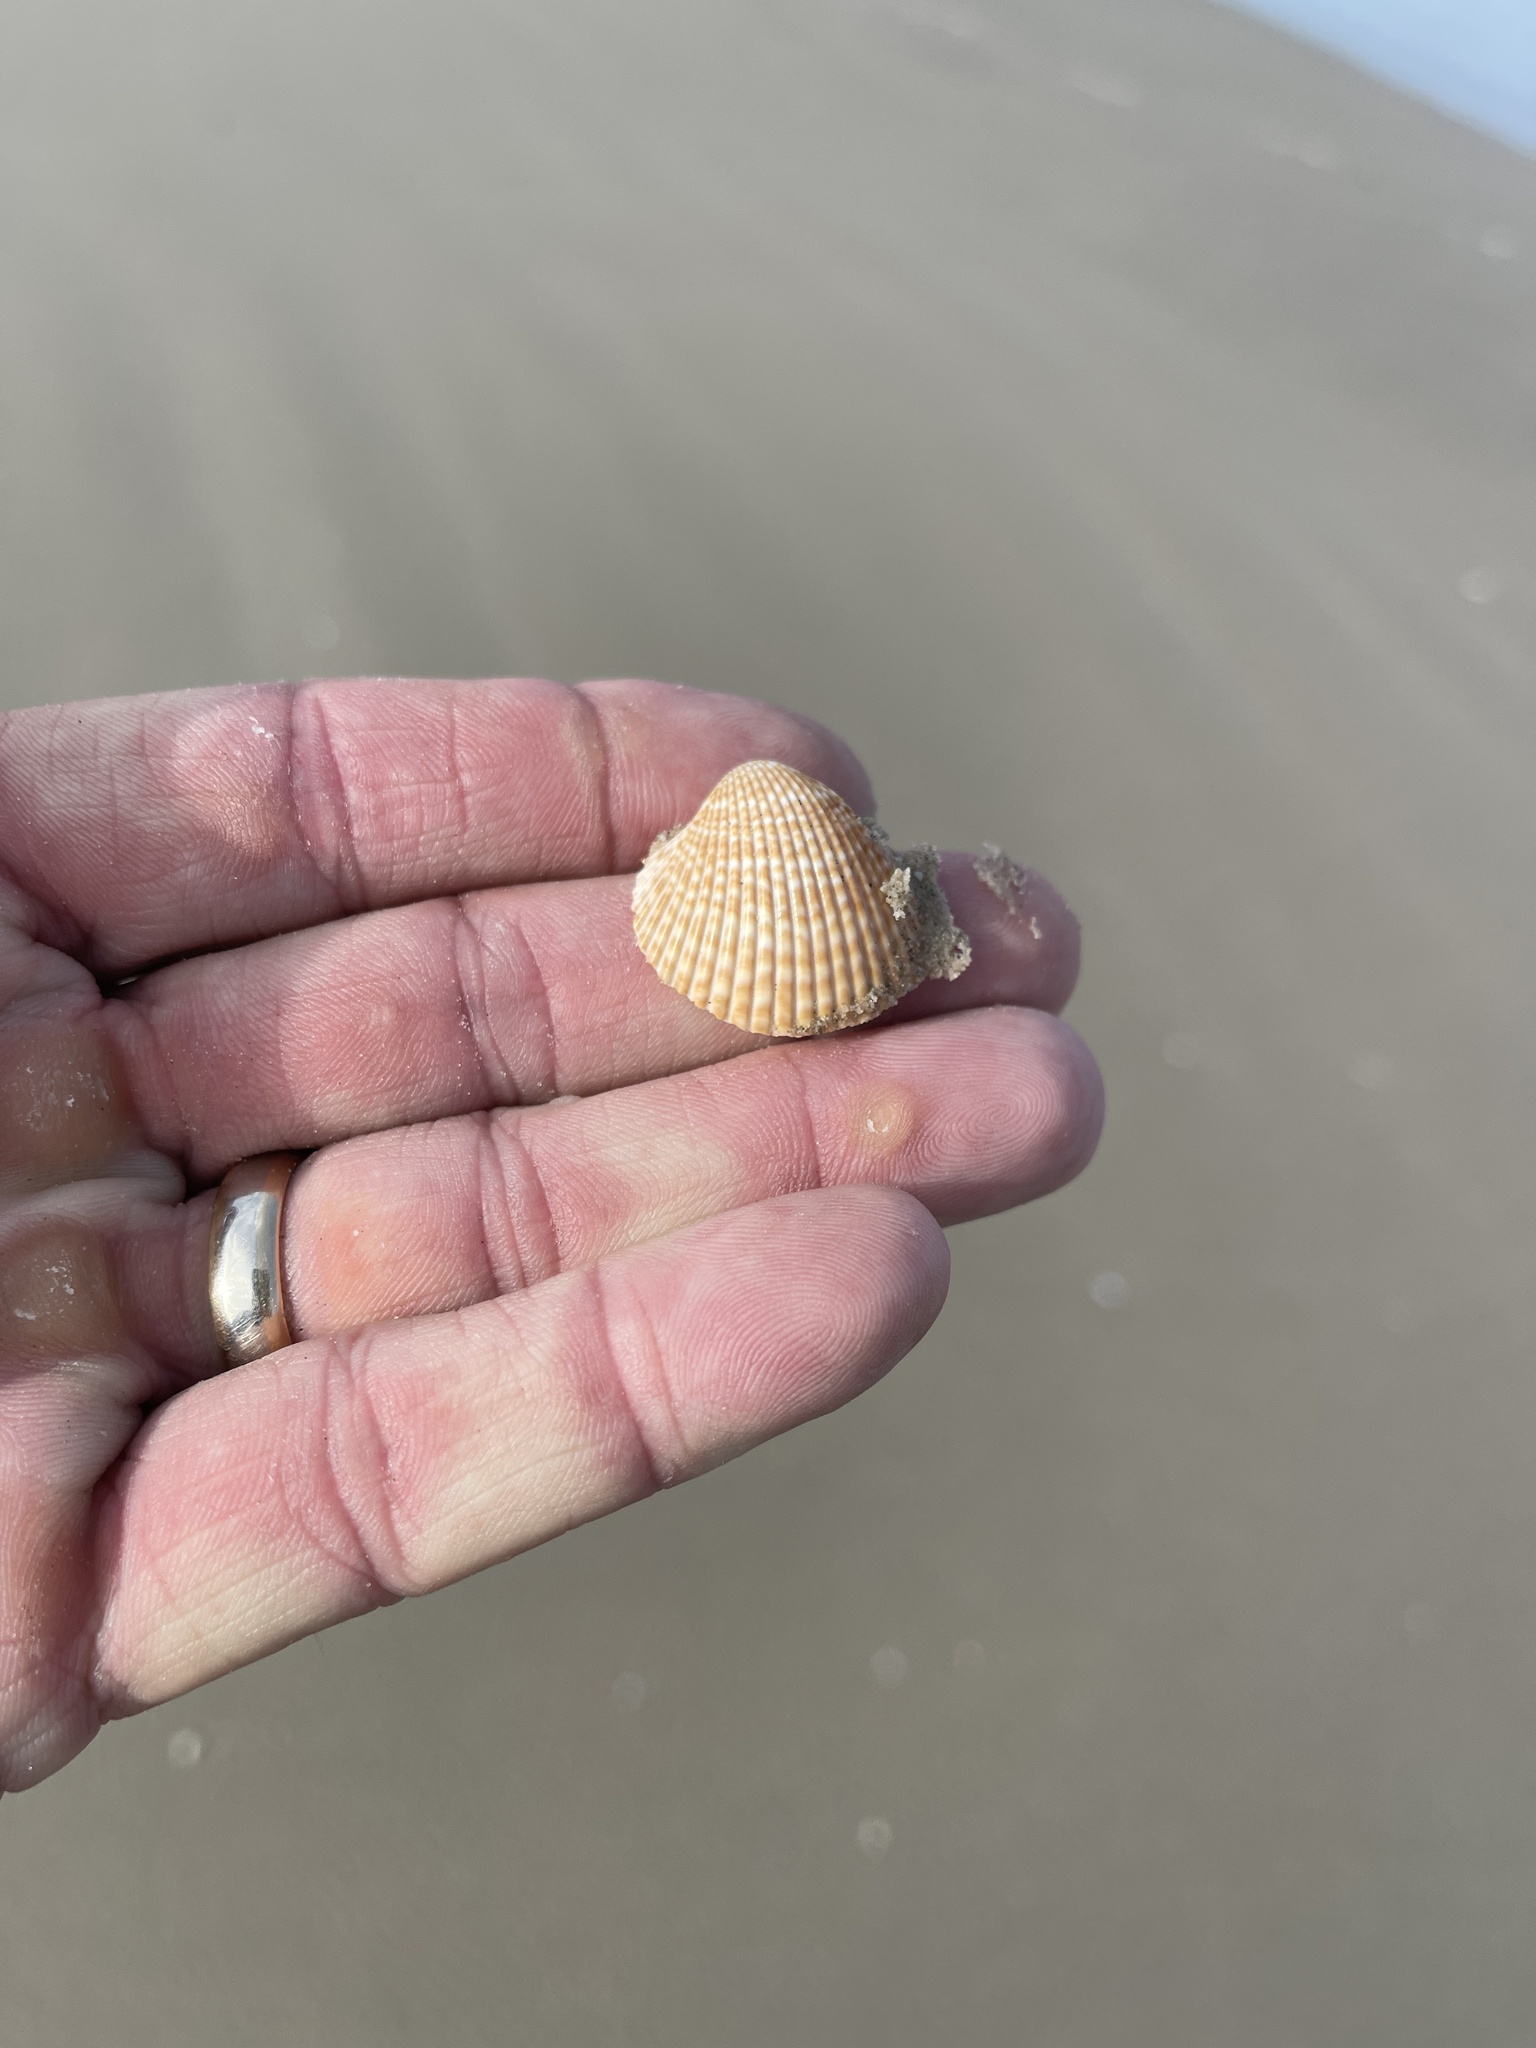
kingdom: Animalia
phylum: Mollusca
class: Bivalvia
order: Cardiida
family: Cardiidae
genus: Dinocardium
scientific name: Dinocardium robustum
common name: Atlantic giant cockle
